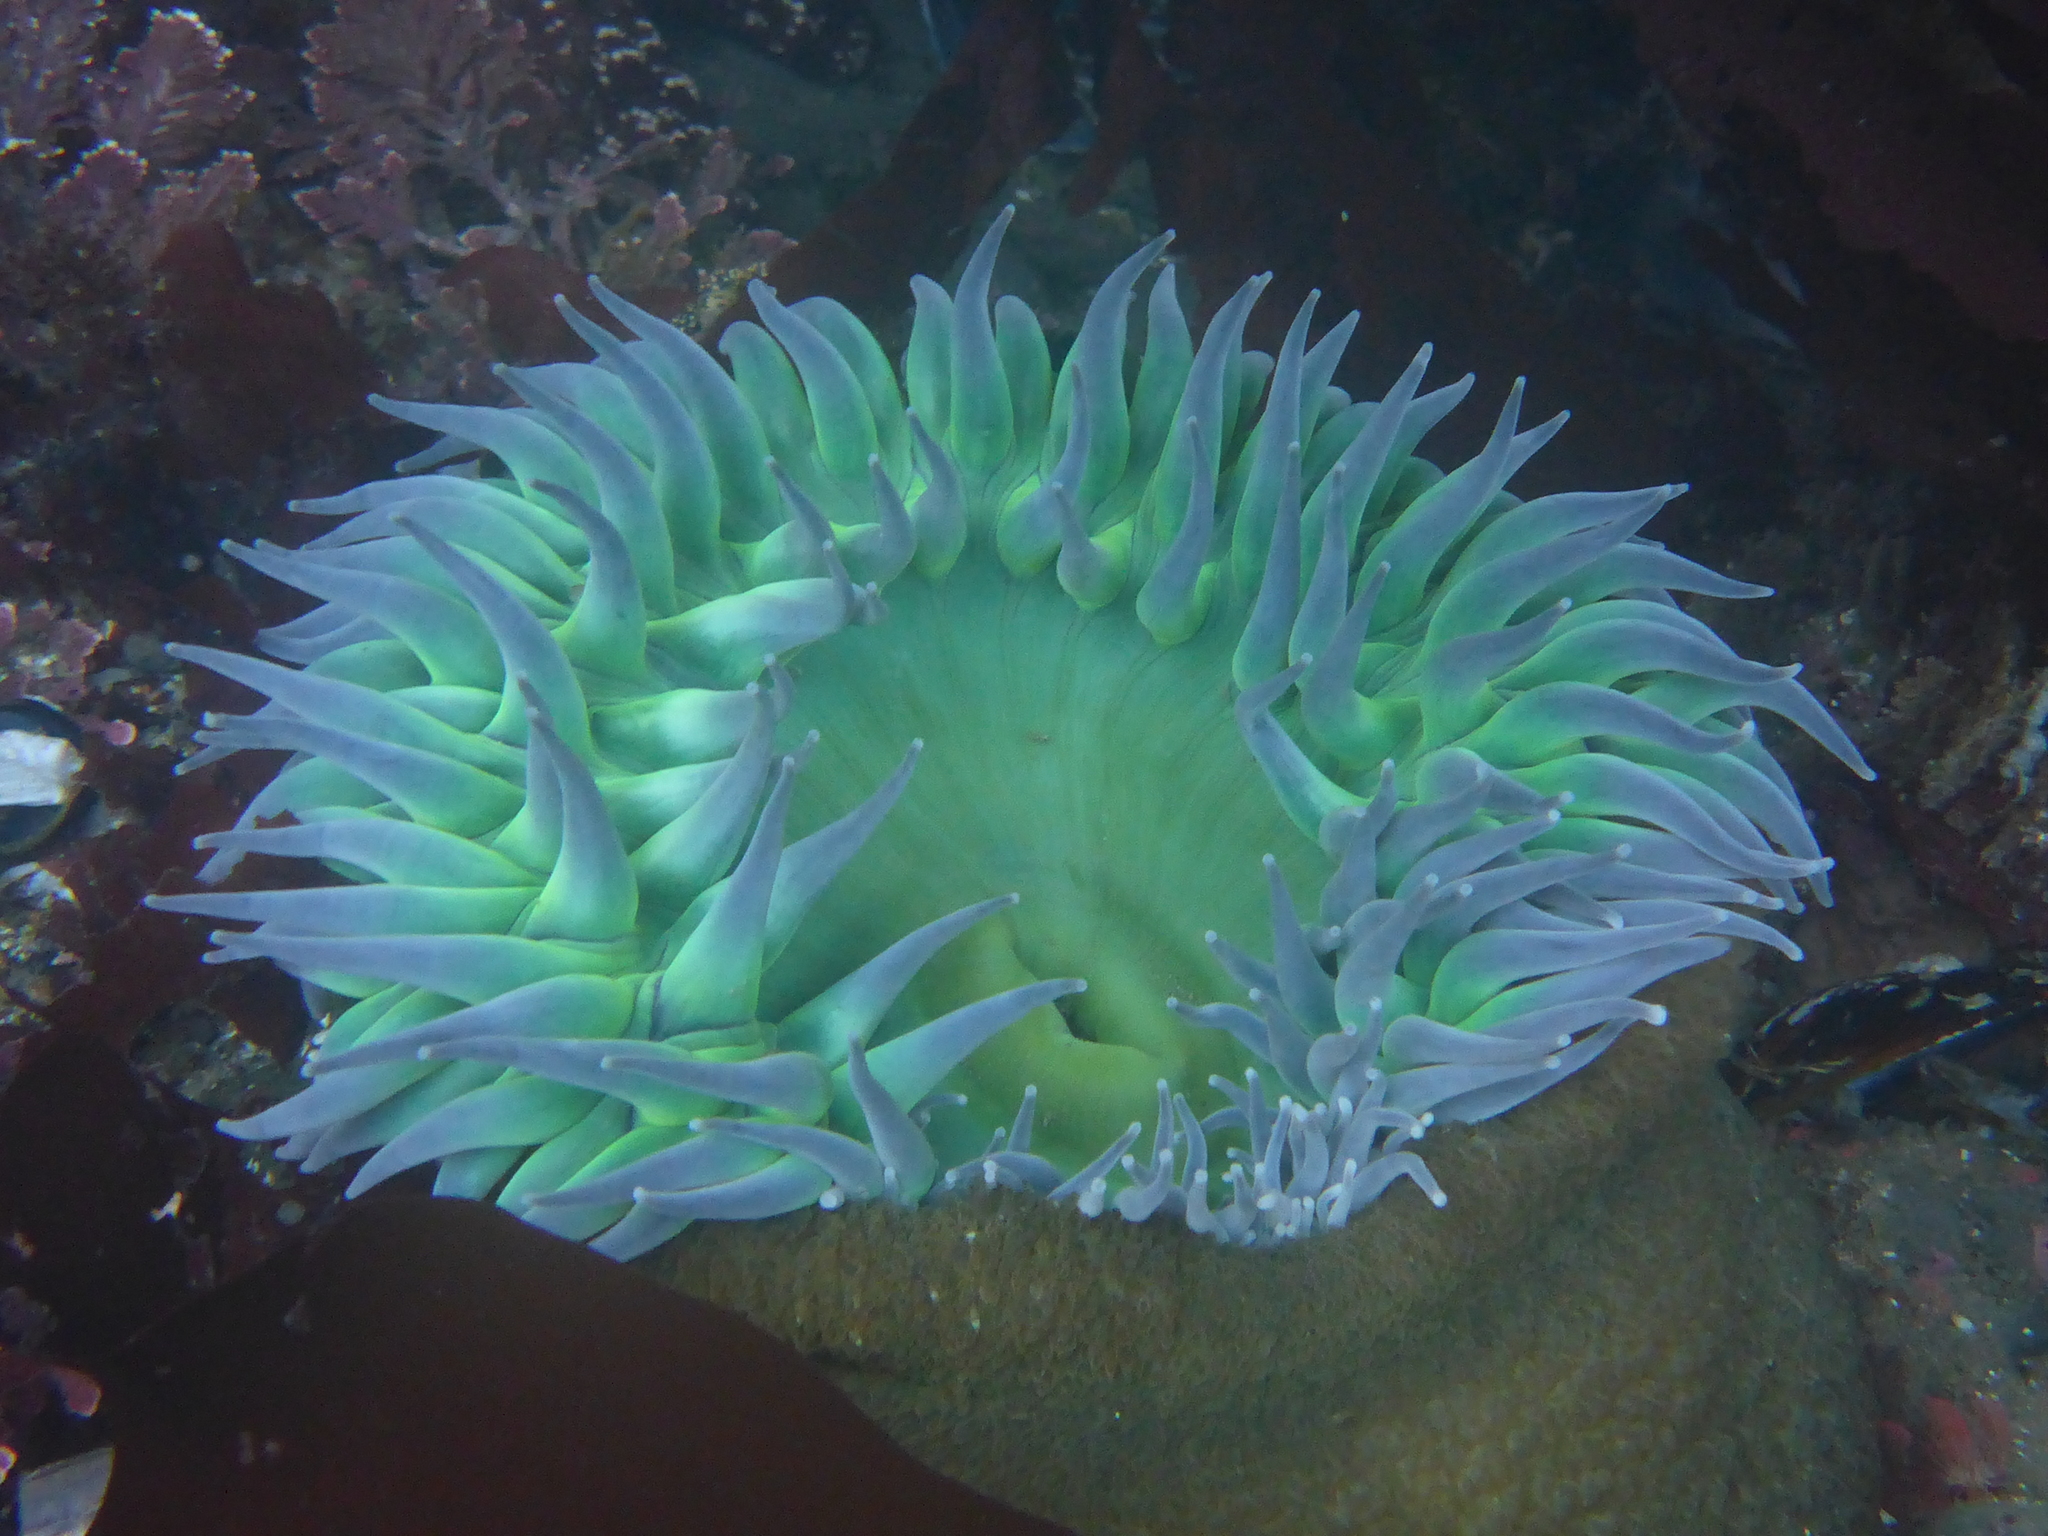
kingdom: Animalia
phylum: Cnidaria
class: Anthozoa
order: Actiniaria
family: Actiniidae
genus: Anthopleura
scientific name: Anthopleura xanthogrammica
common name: Giant green anemone
